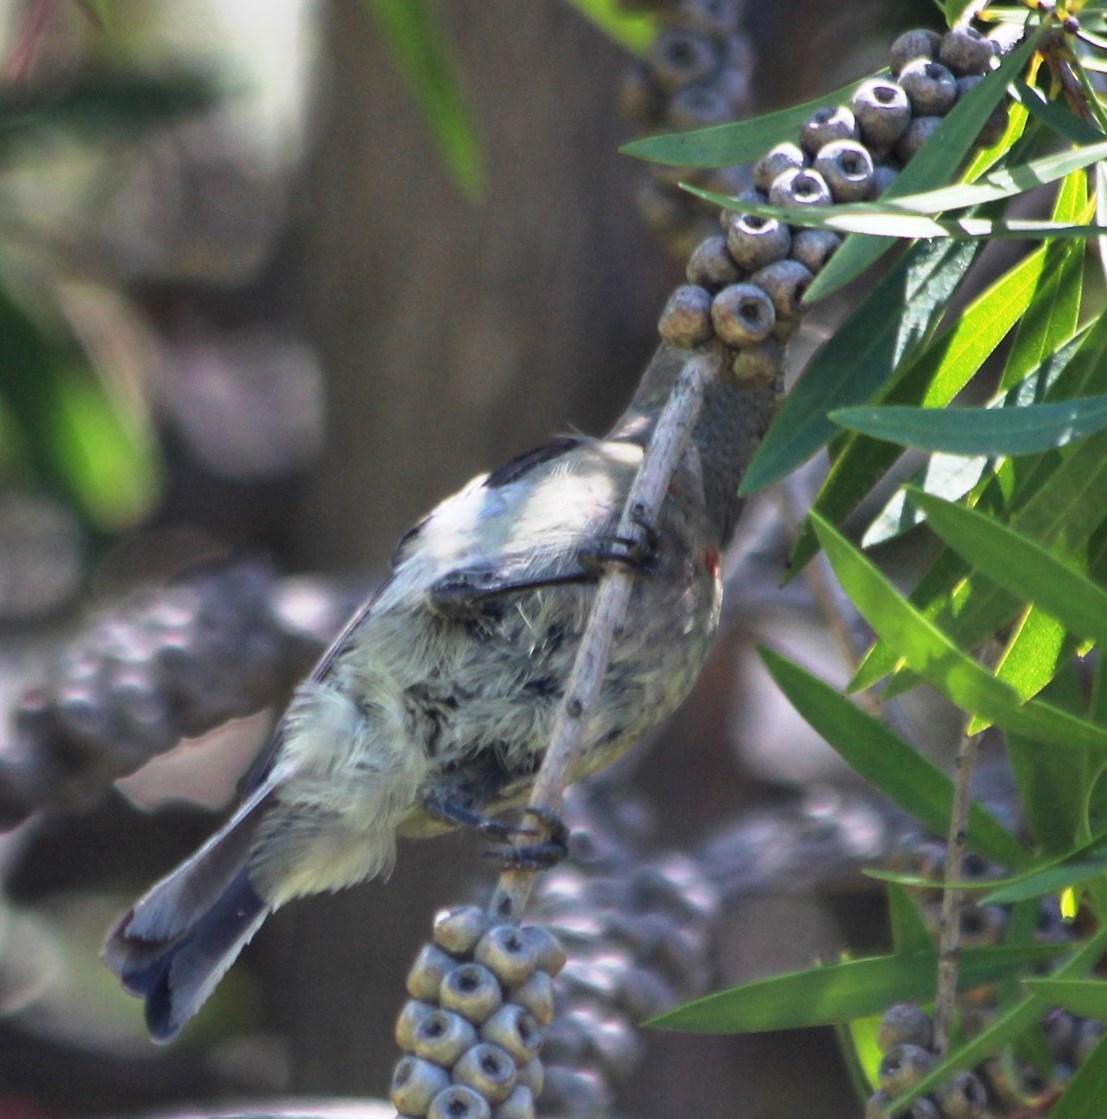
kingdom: Animalia
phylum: Chordata
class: Aves
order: Passeriformes
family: Nectariniidae
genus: Cinnyris
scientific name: Cinnyris chalybeus
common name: Southern double-collared sunbird
